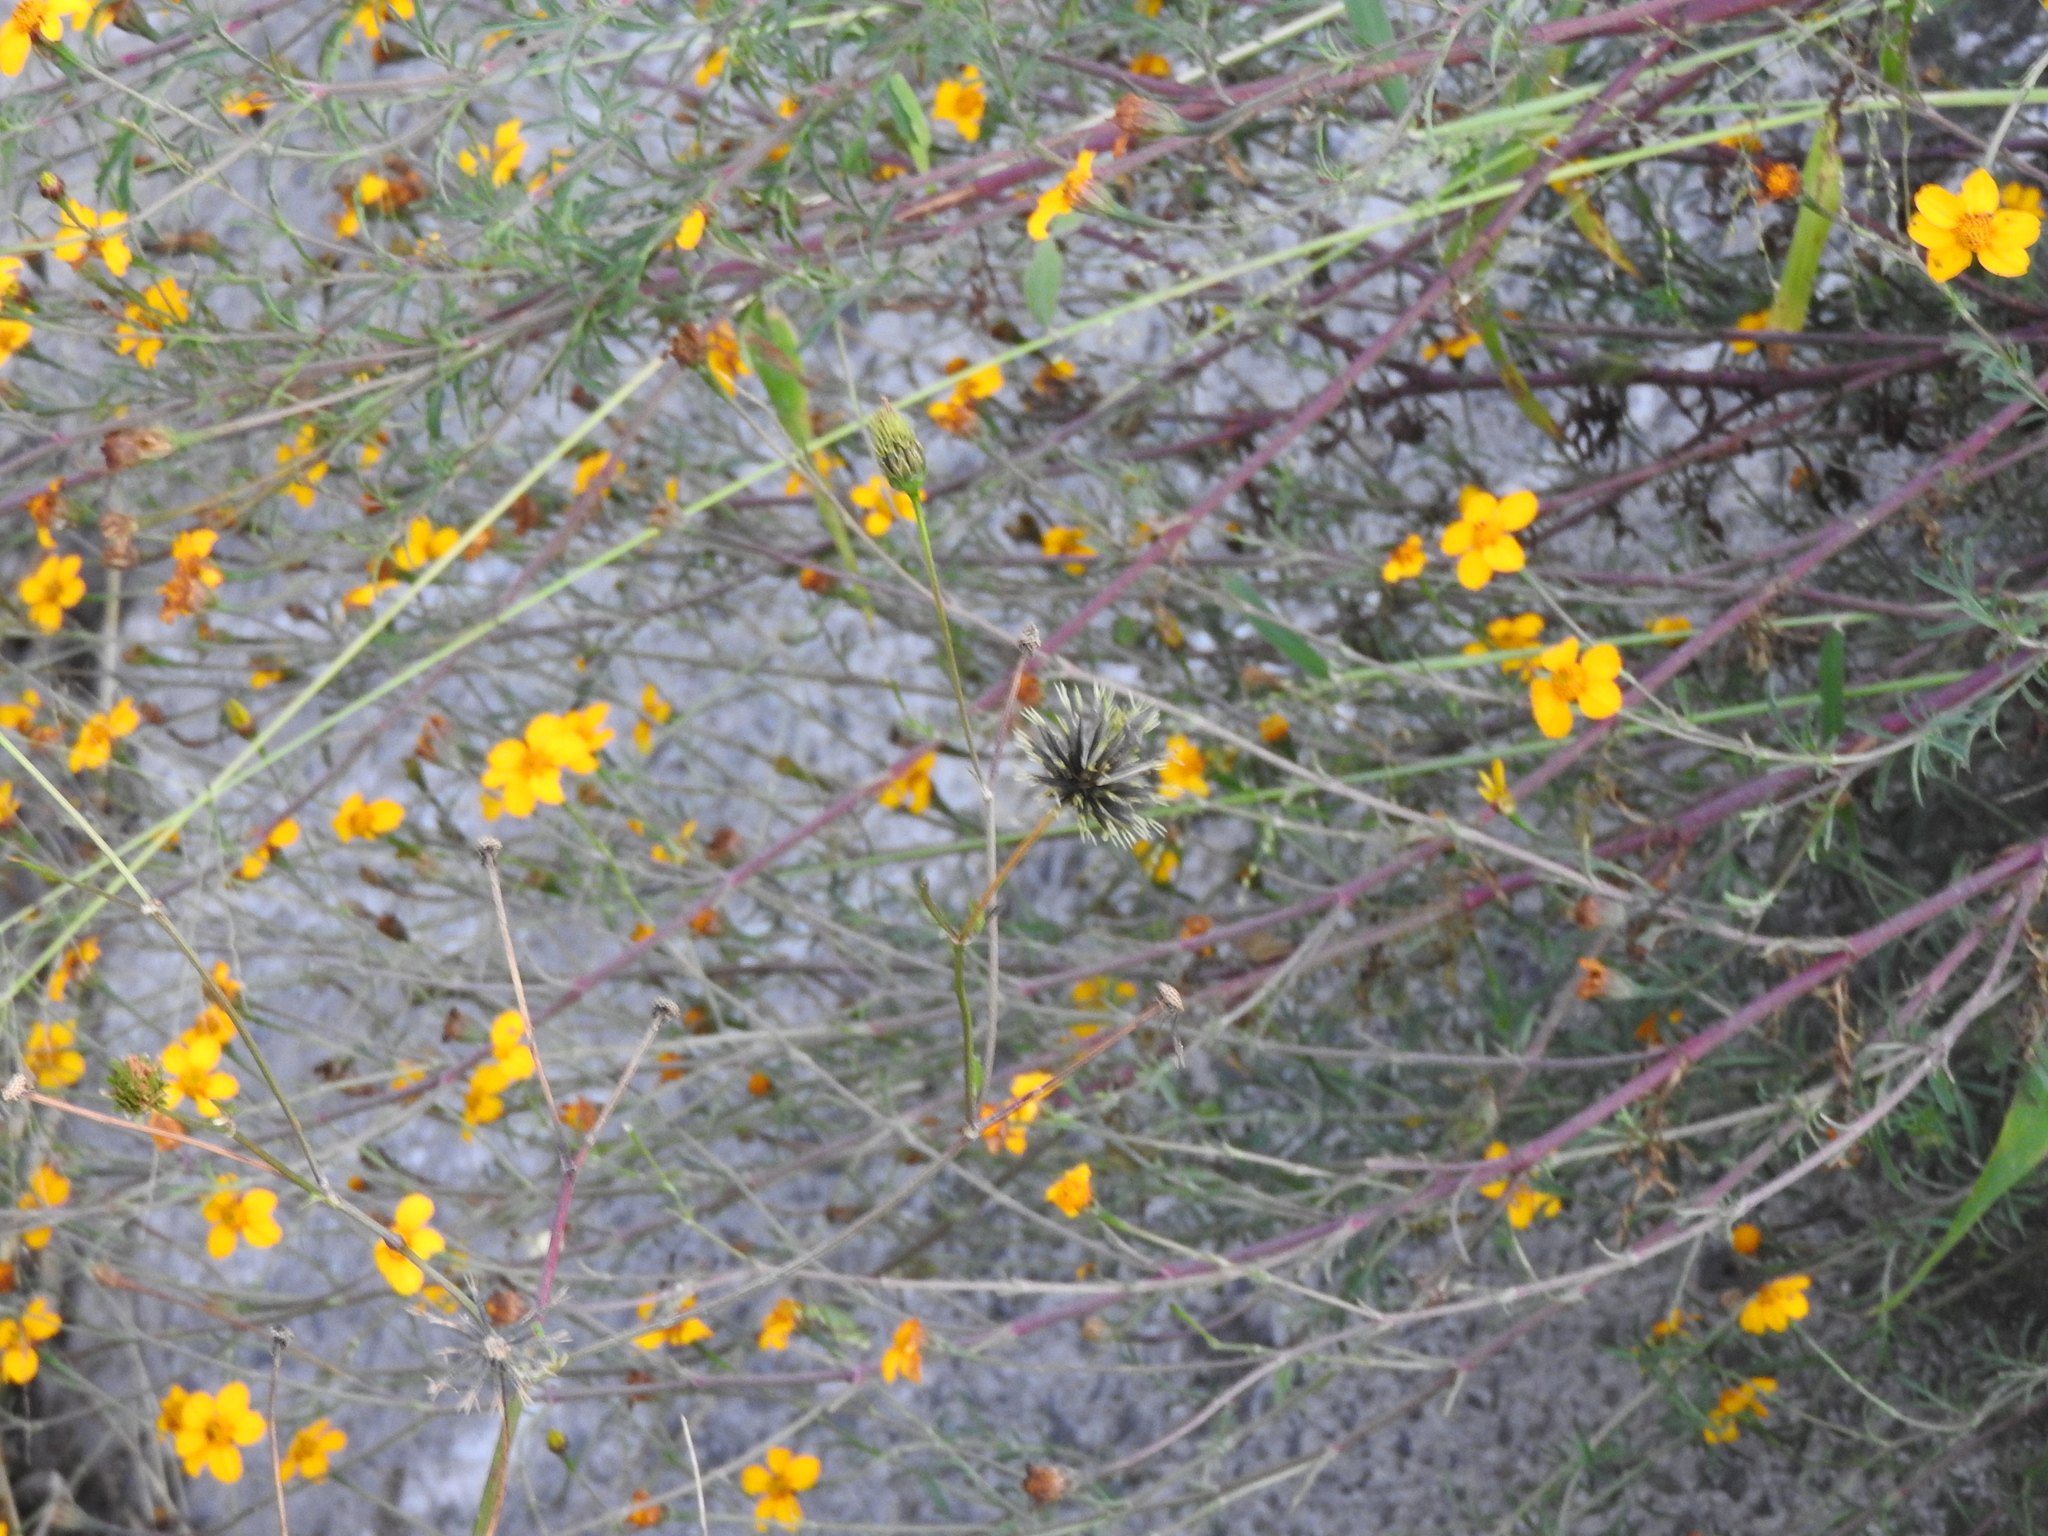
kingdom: Plantae
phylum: Tracheophyta
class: Magnoliopsida
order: Asterales
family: Asteraceae
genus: Dyssodia
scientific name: Dyssodia tagetiflora
